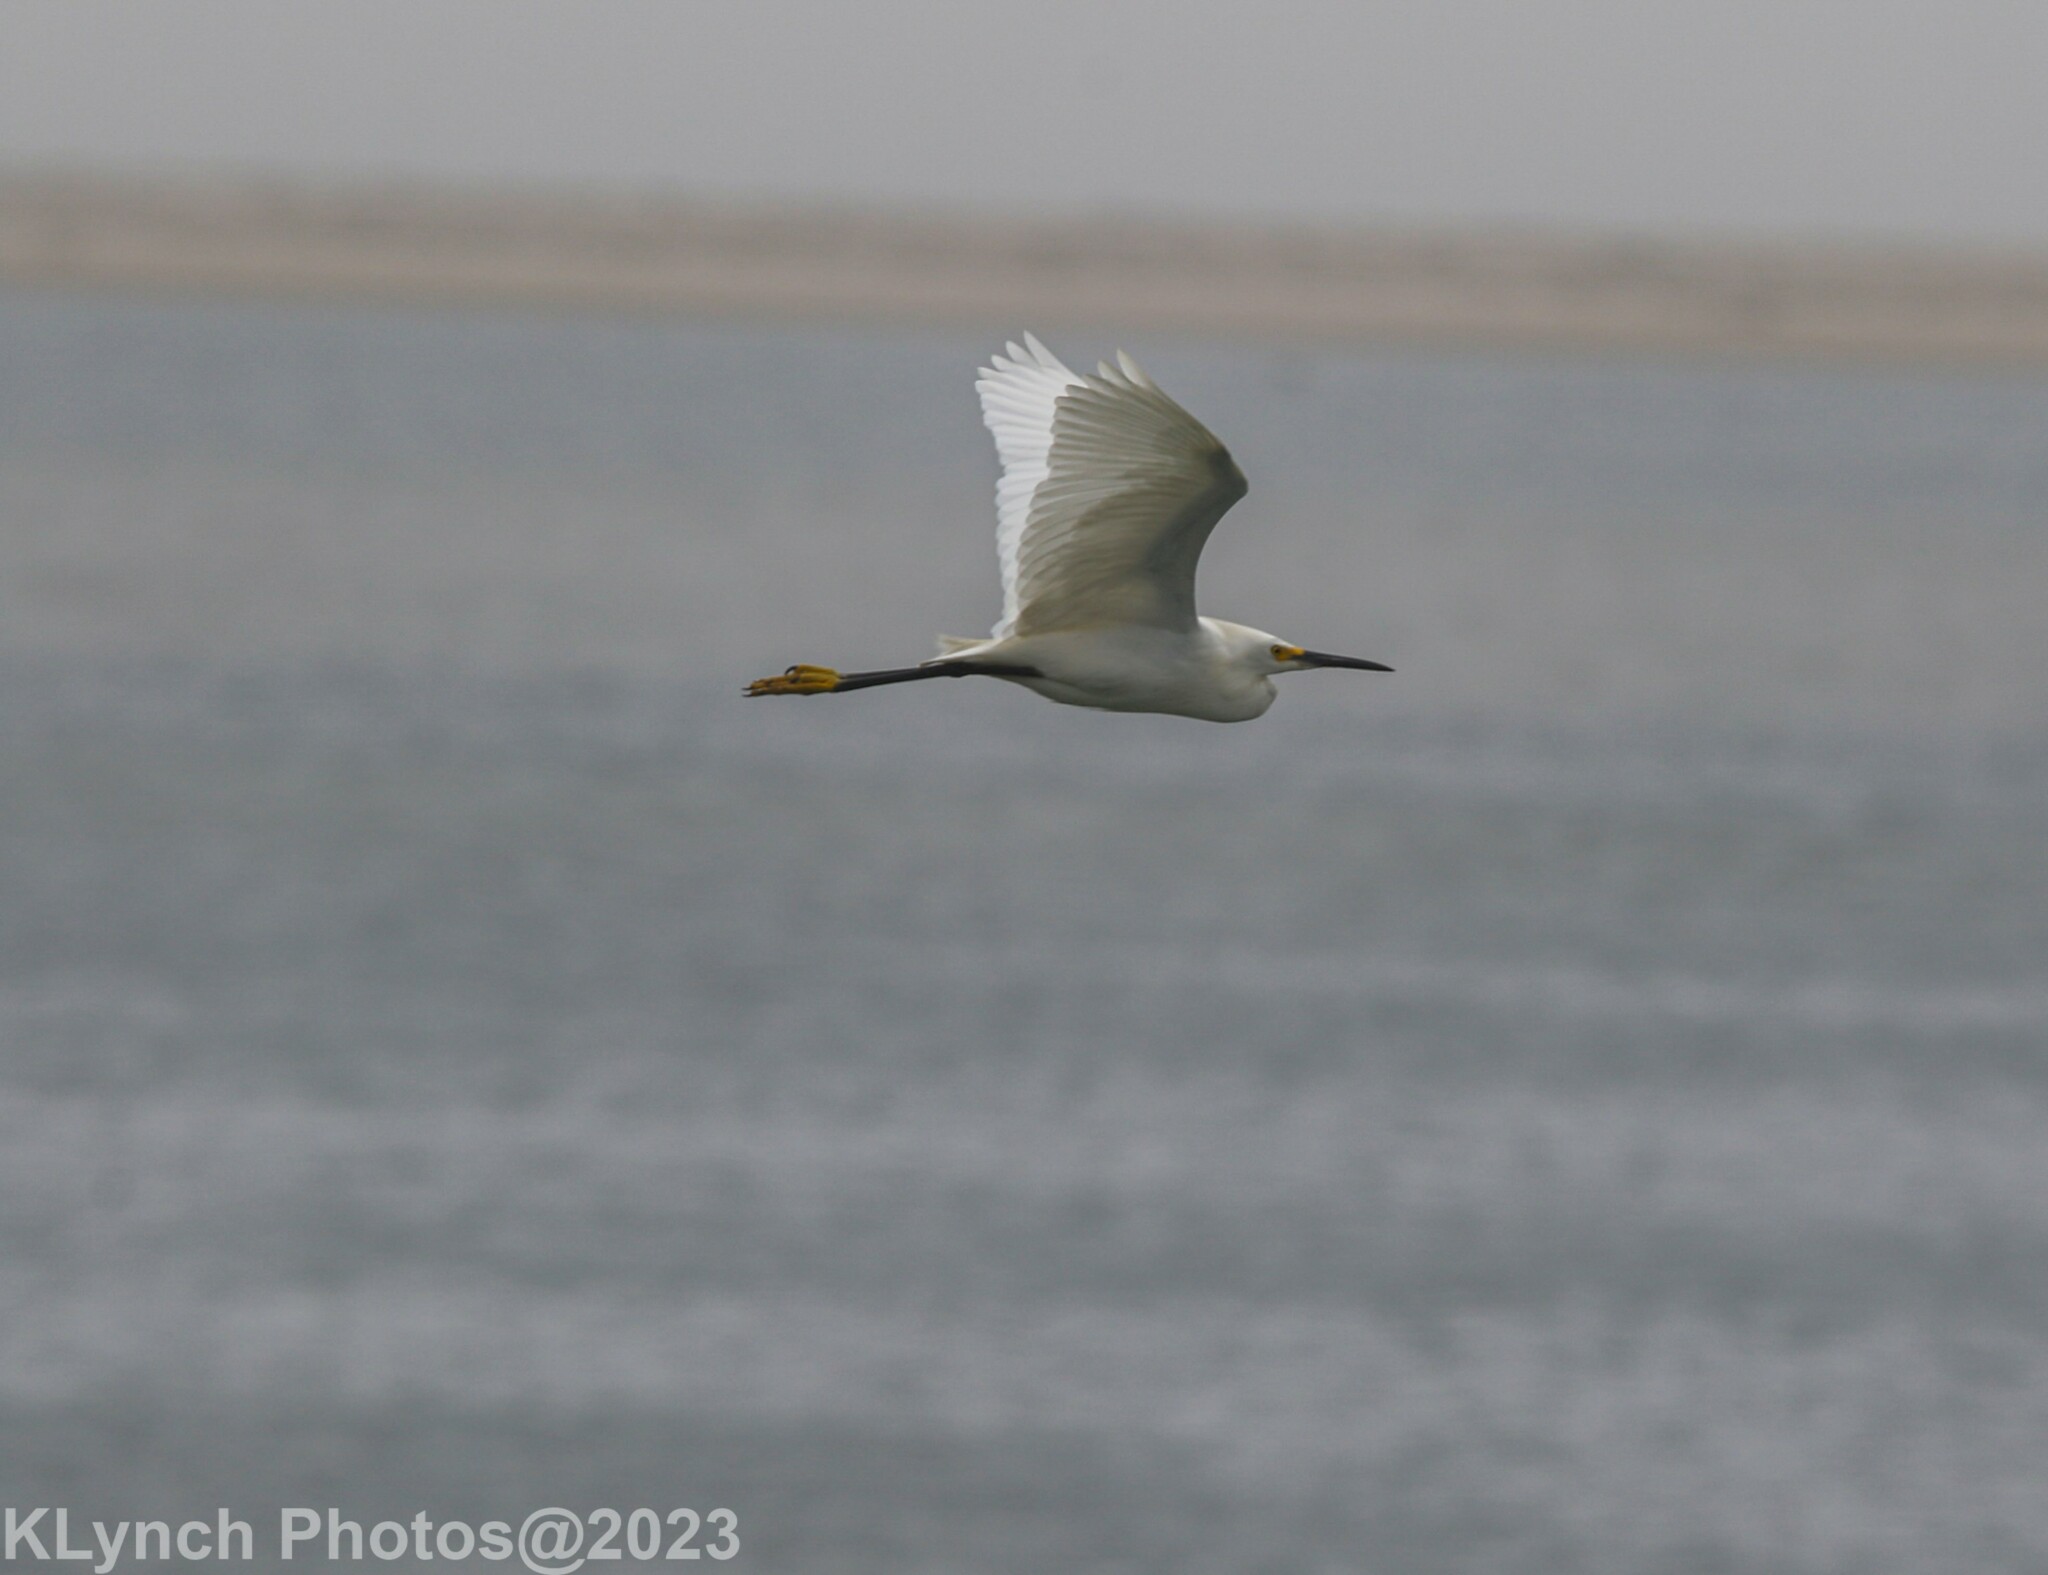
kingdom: Animalia
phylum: Chordata
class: Aves
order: Pelecaniformes
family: Ardeidae
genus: Egretta
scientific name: Egretta thula
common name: Snowy egret
